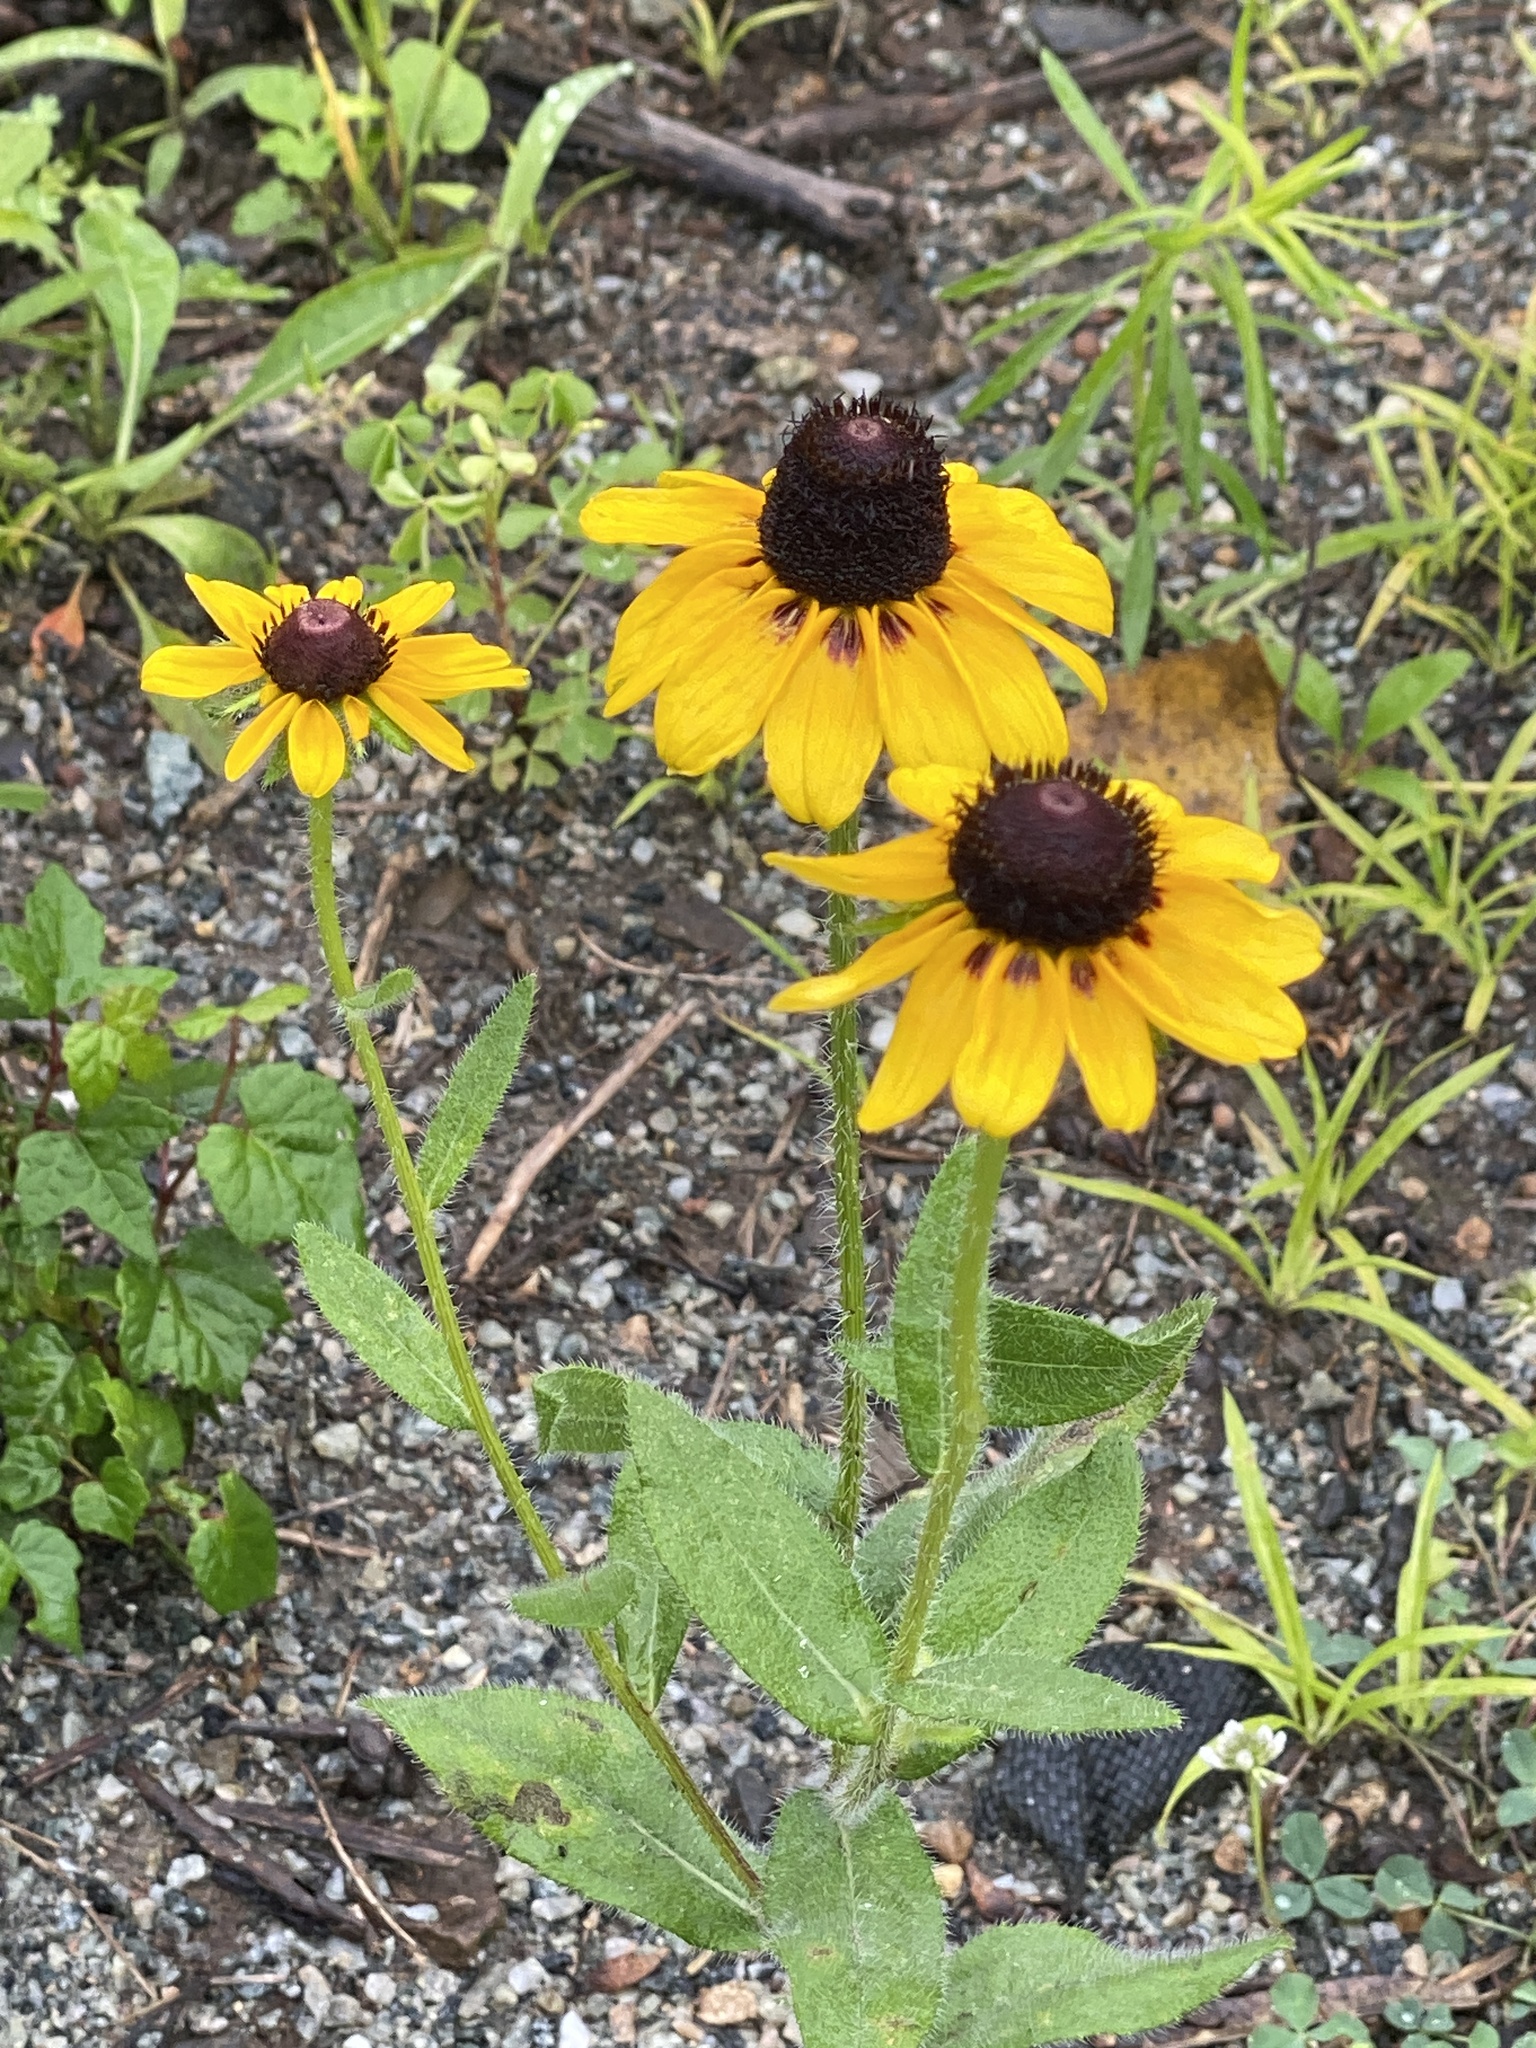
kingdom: Plantae
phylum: Tracheophyta
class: Magnoliopsida
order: Asterales
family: Asteraceae
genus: Rudbeckia
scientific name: Rudbeckia hirta
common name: Black-eyed-susan
